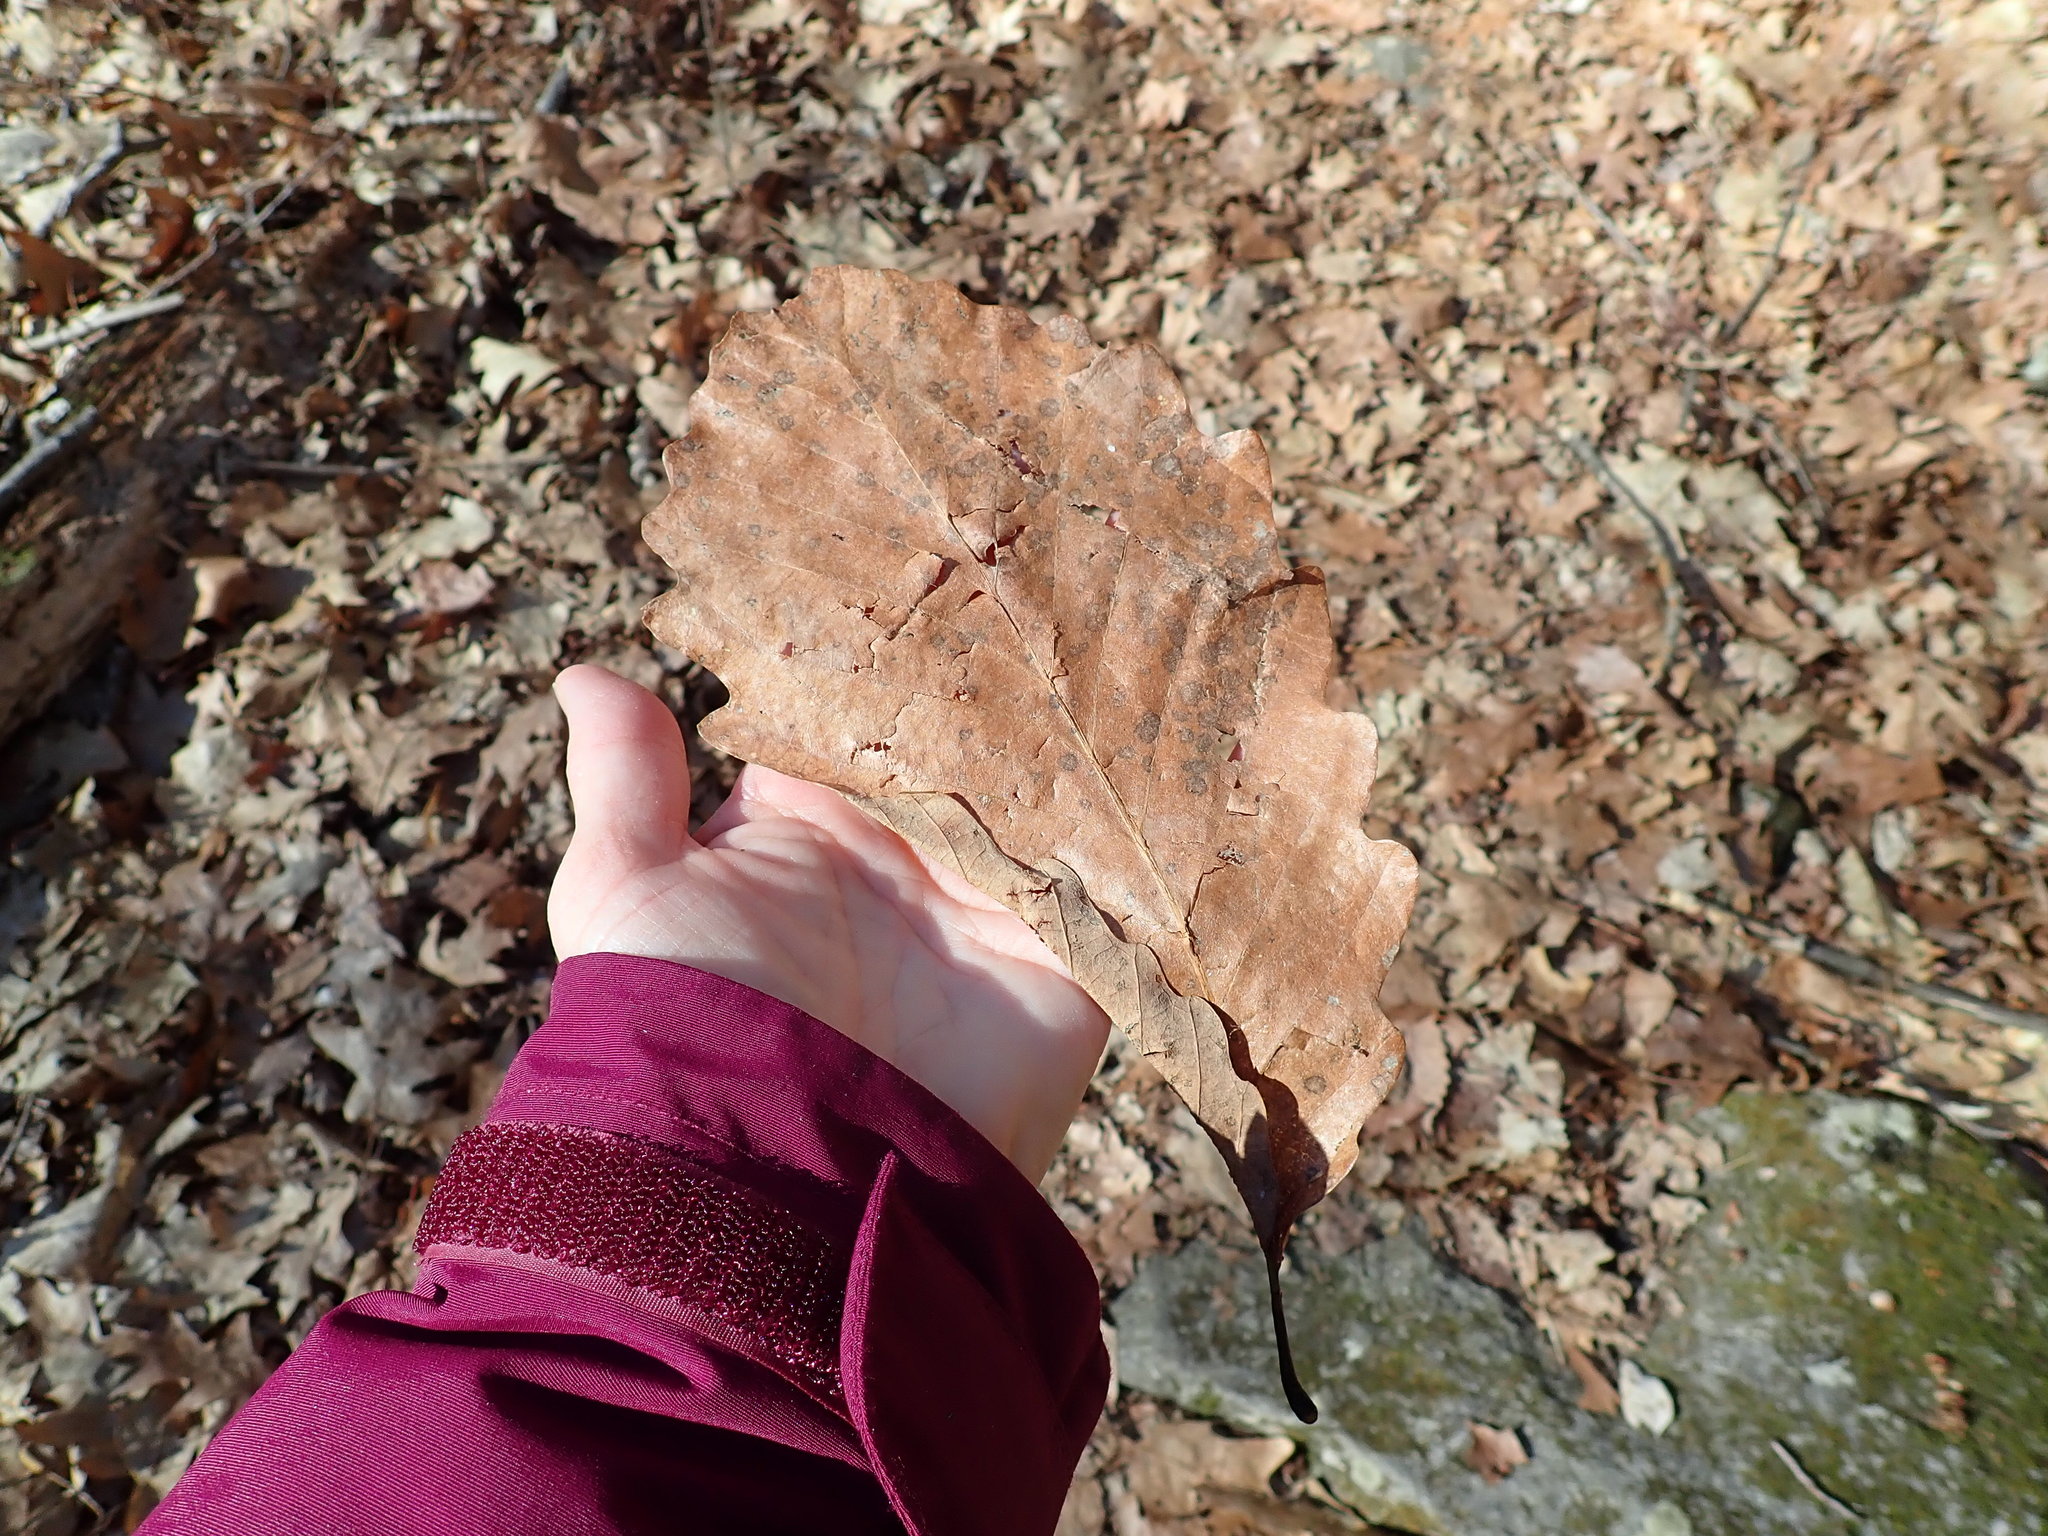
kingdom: Plantae
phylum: Tracheophyta
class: Magnoliopsida
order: Fagales
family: Fagaceae
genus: Quercus
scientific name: Quercus montana
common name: Chestnut oak
